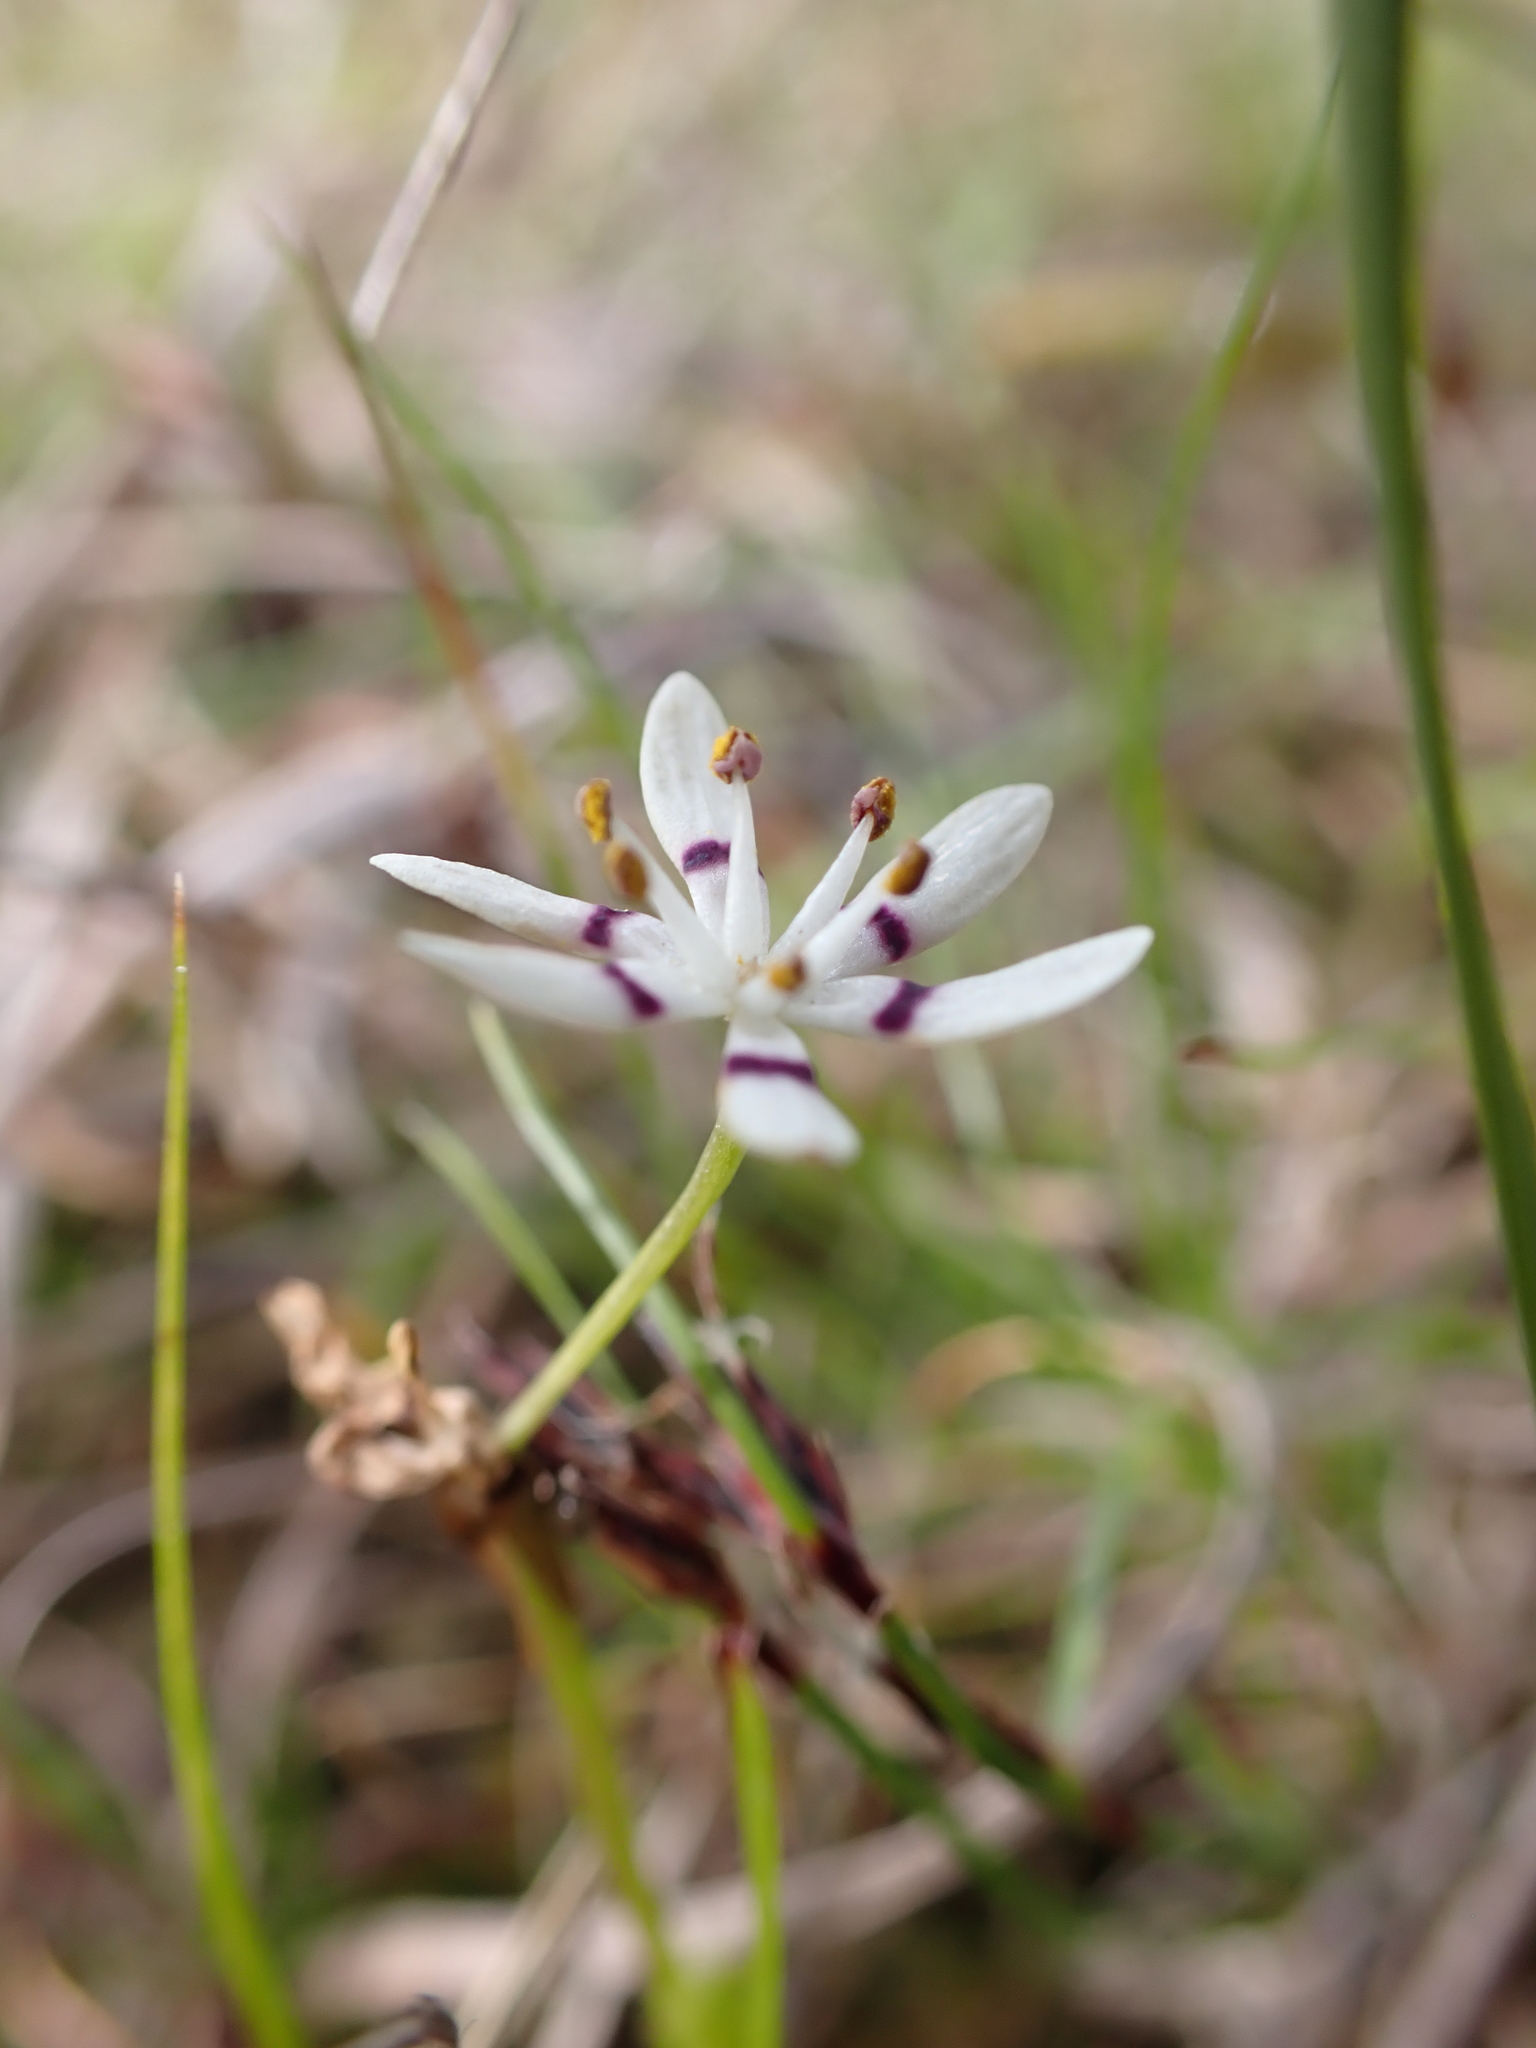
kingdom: Plantae
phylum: Tracheophyta
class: Liliopsida
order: Liliales
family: Colchicaceae
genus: Wurmbea
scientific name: Wurmbea dioica
